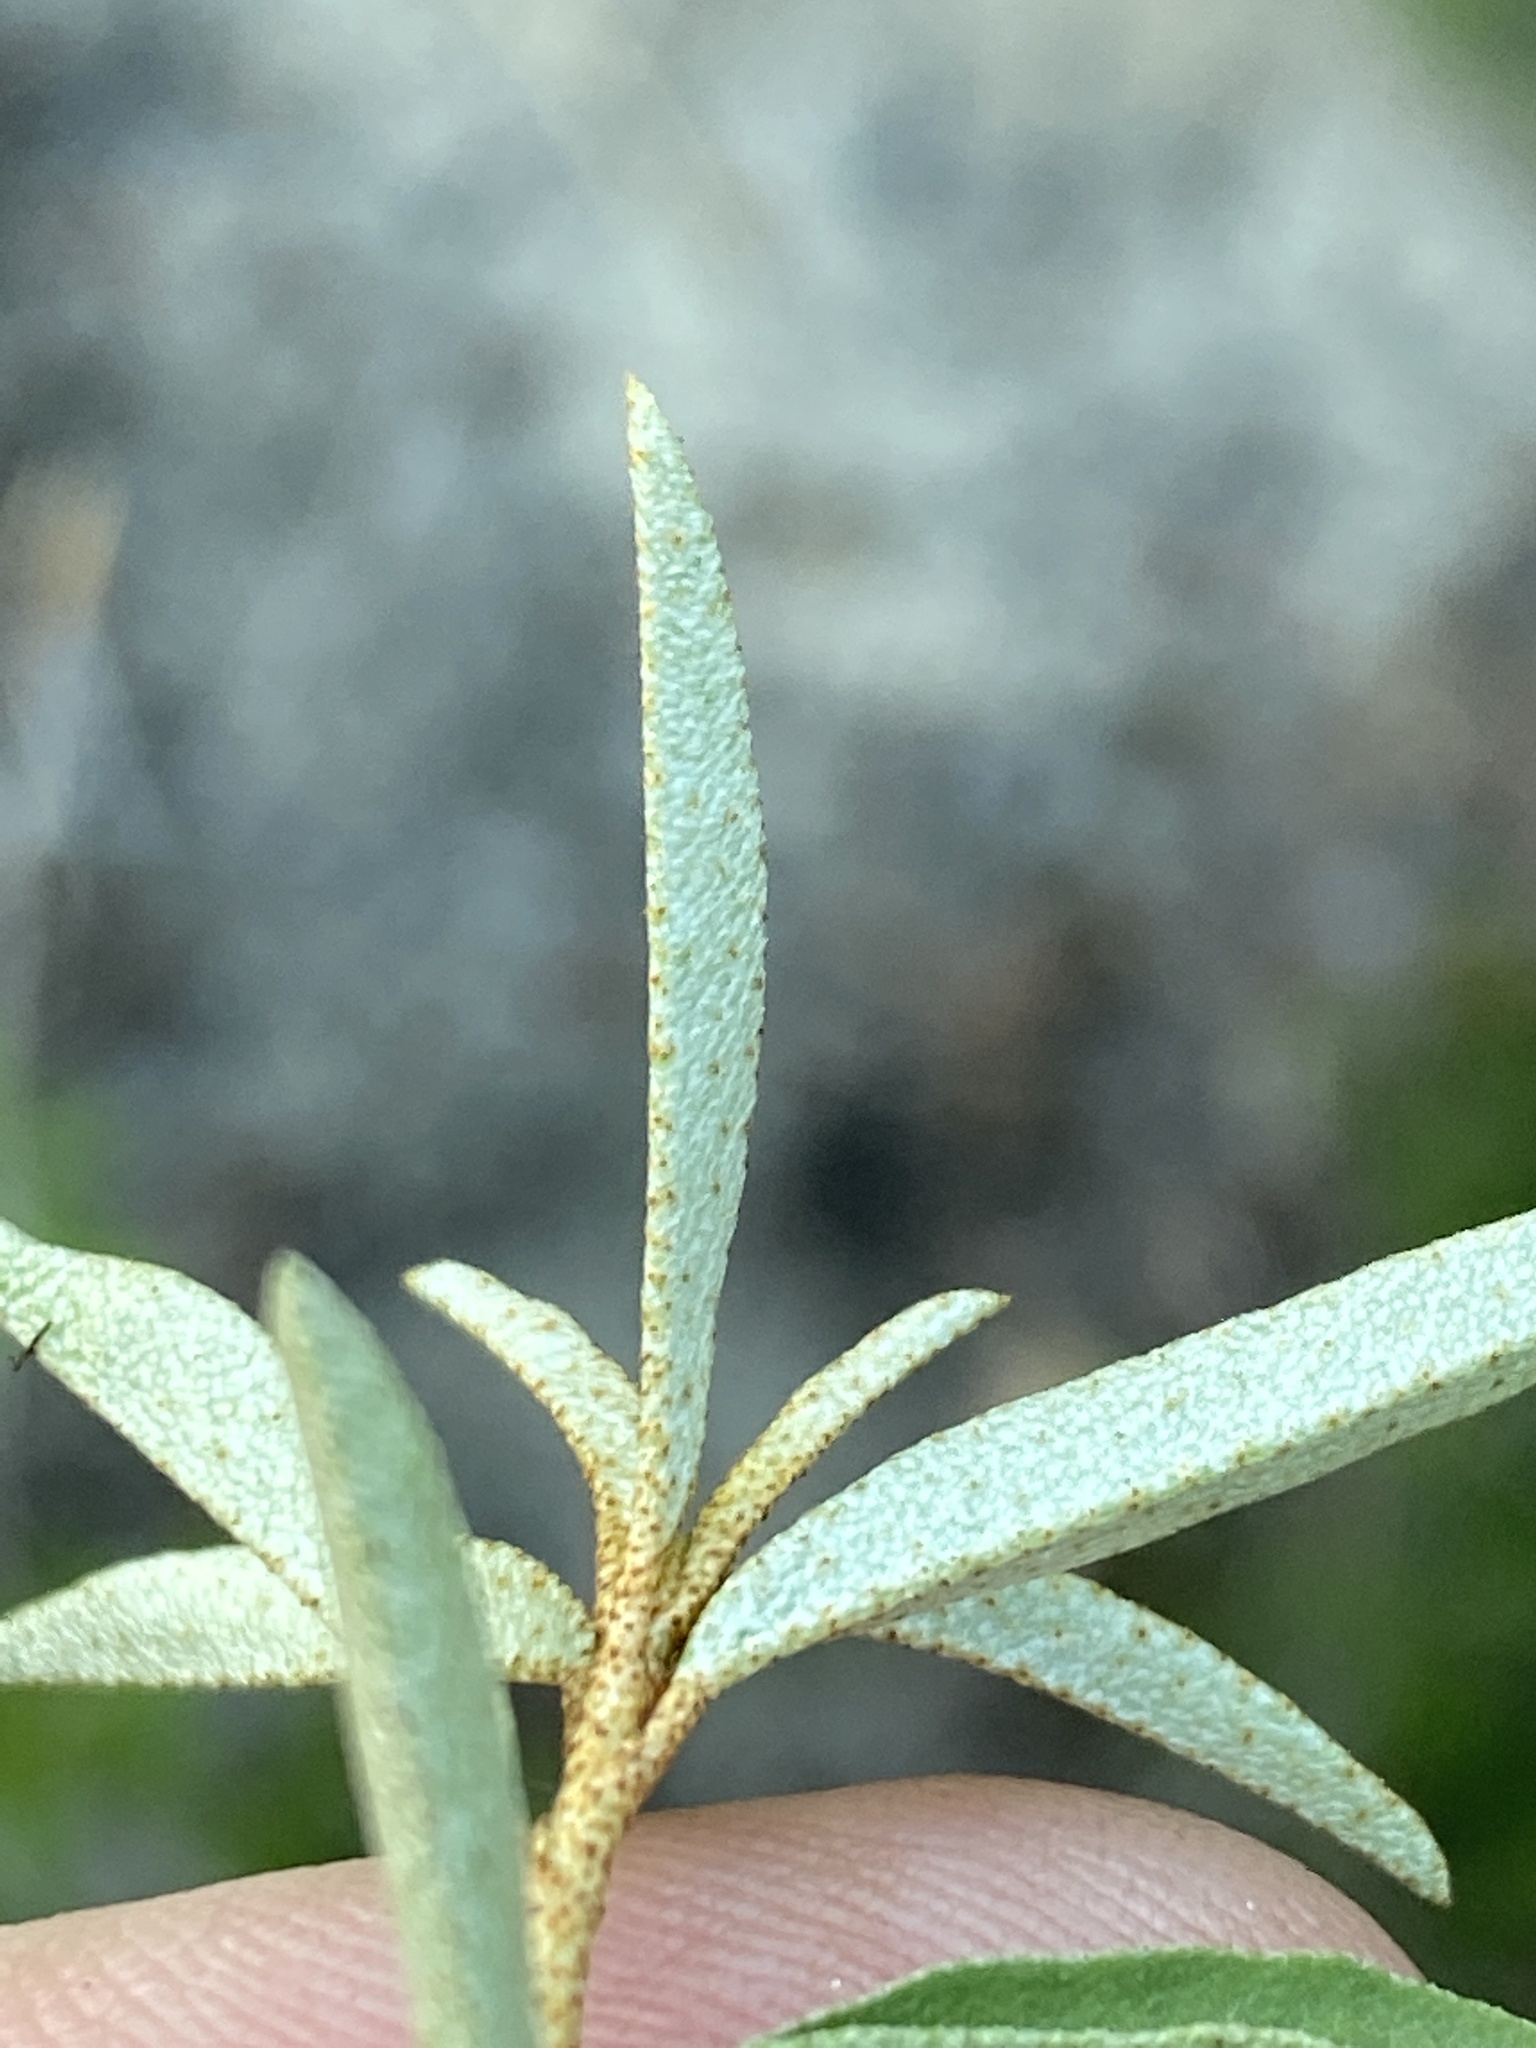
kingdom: Plantae
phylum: Tracheophyta
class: Magnoliopsida
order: Malpighiales
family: Euphorbiaceae
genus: Croton
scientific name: Croton michauxii
